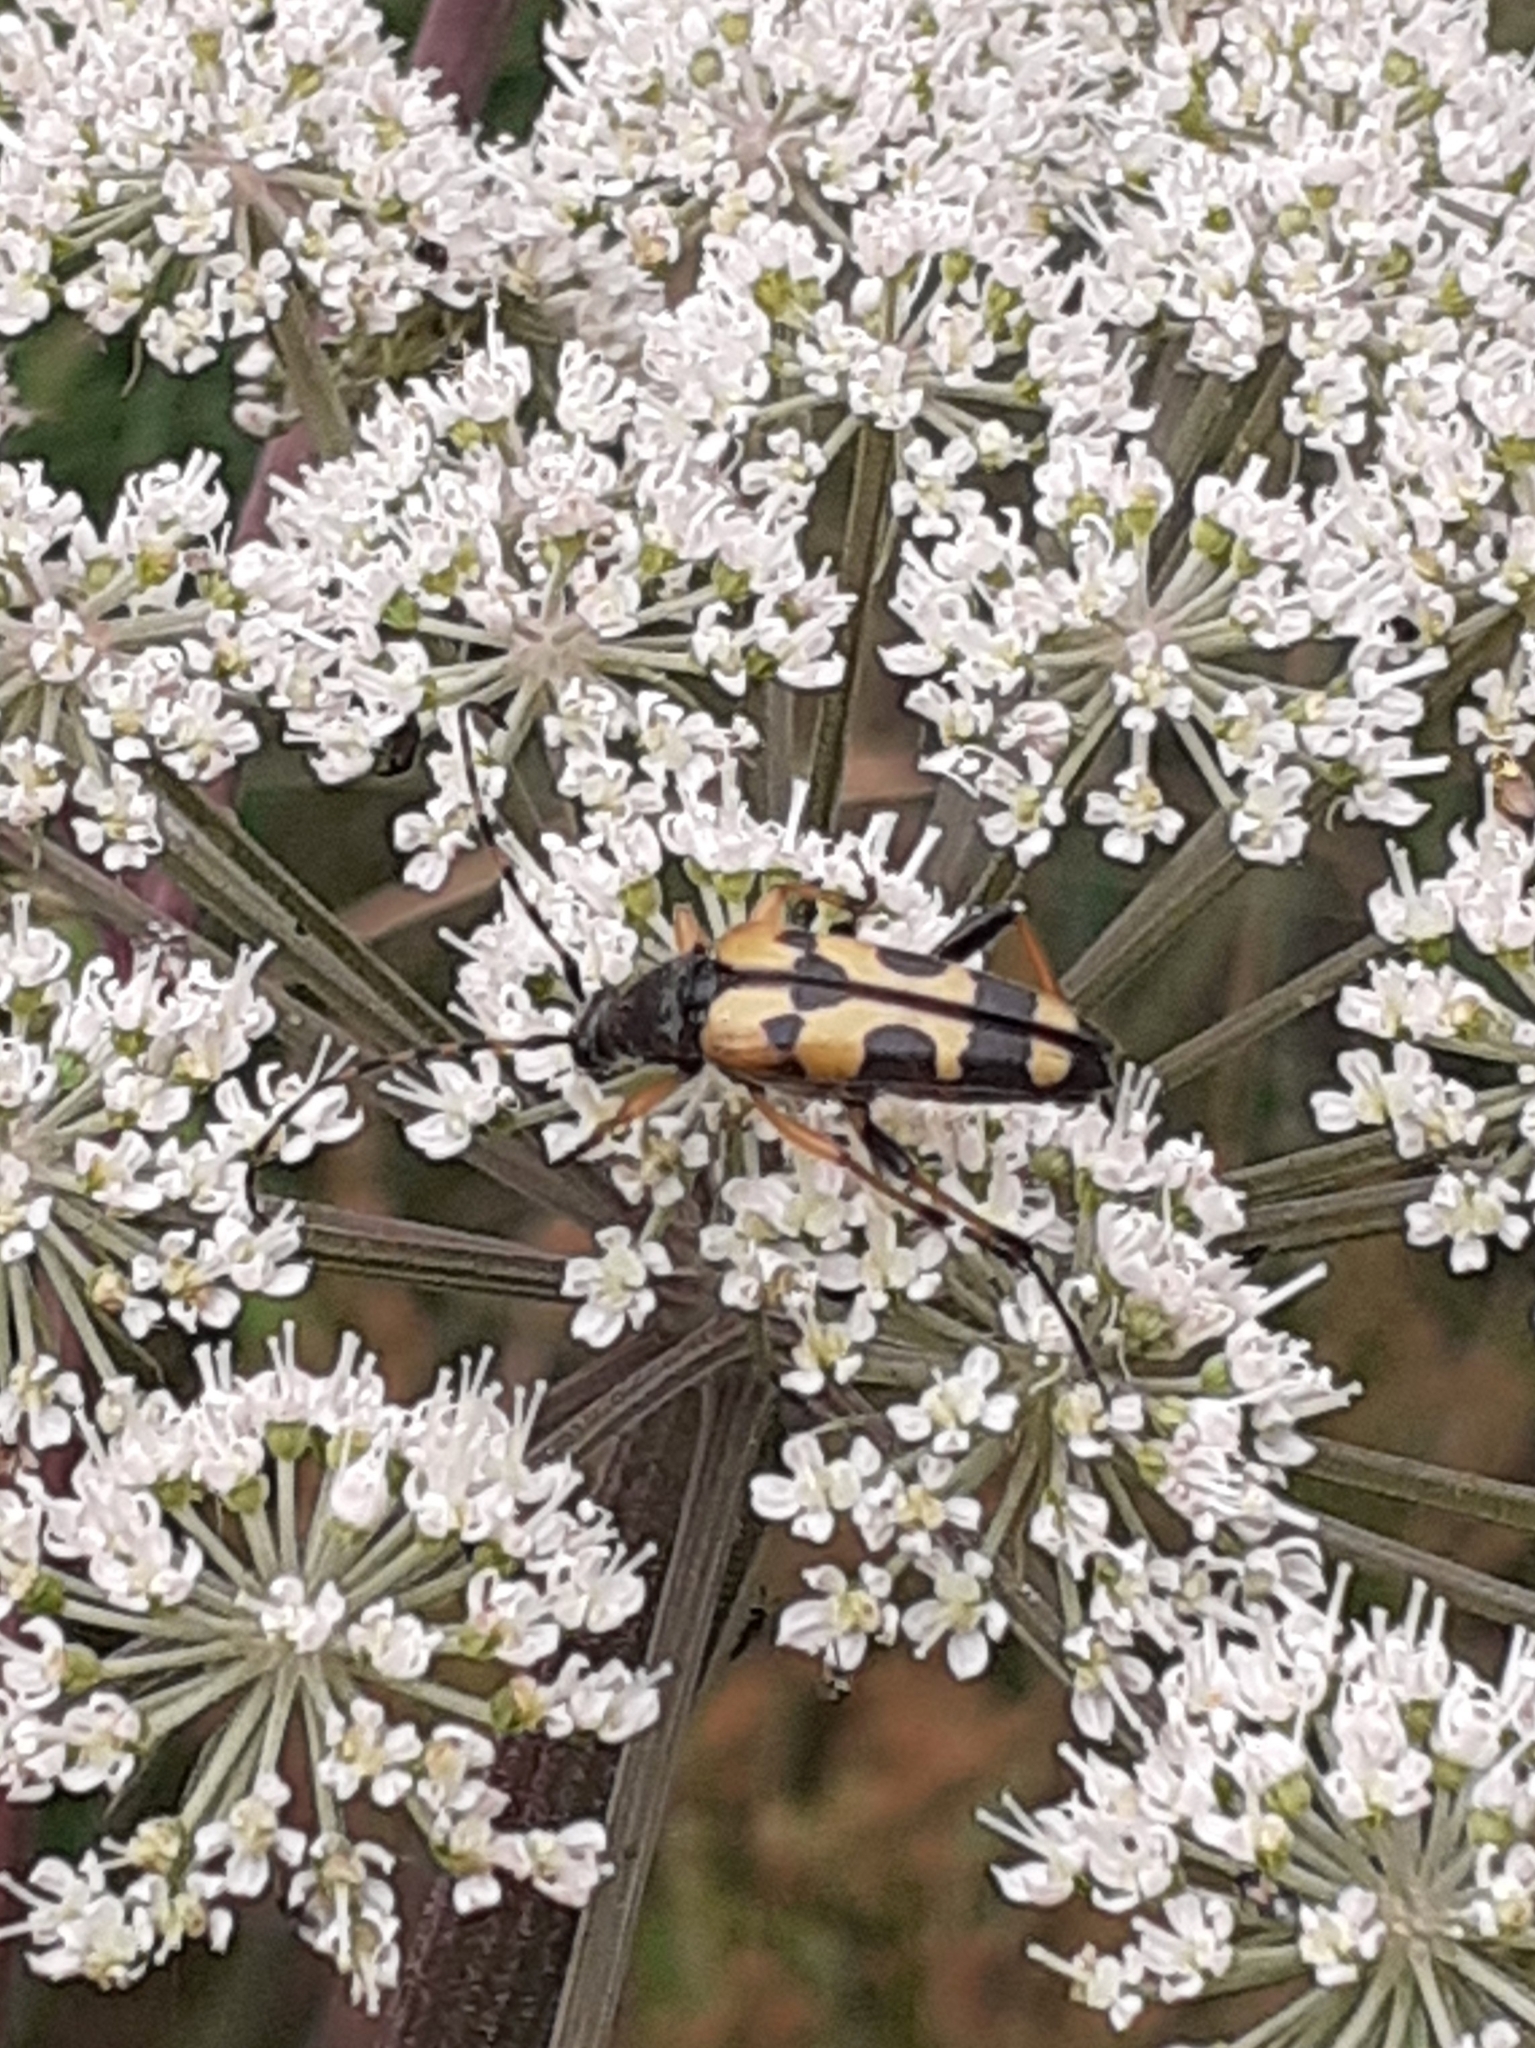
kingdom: Animalia
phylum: Arthropoda
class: Insecta
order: Coleoptera
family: Cerambycidae
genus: Rutpela
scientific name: Rutpela maculata
